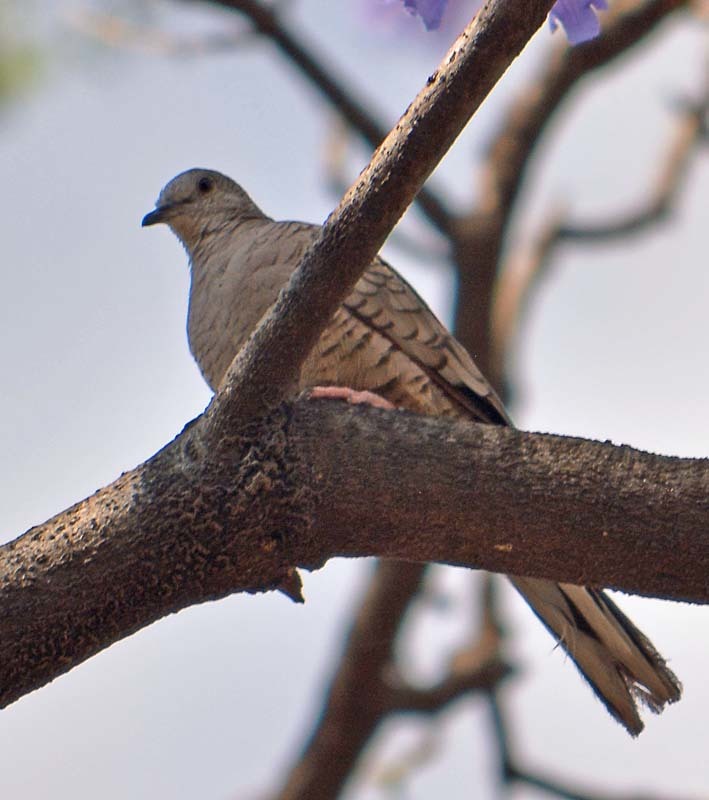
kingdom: Animalia
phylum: Chordata
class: Aves
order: Columbiformes
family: Columbidae
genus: Columbina
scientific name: Columbina inca
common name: Inca dove
